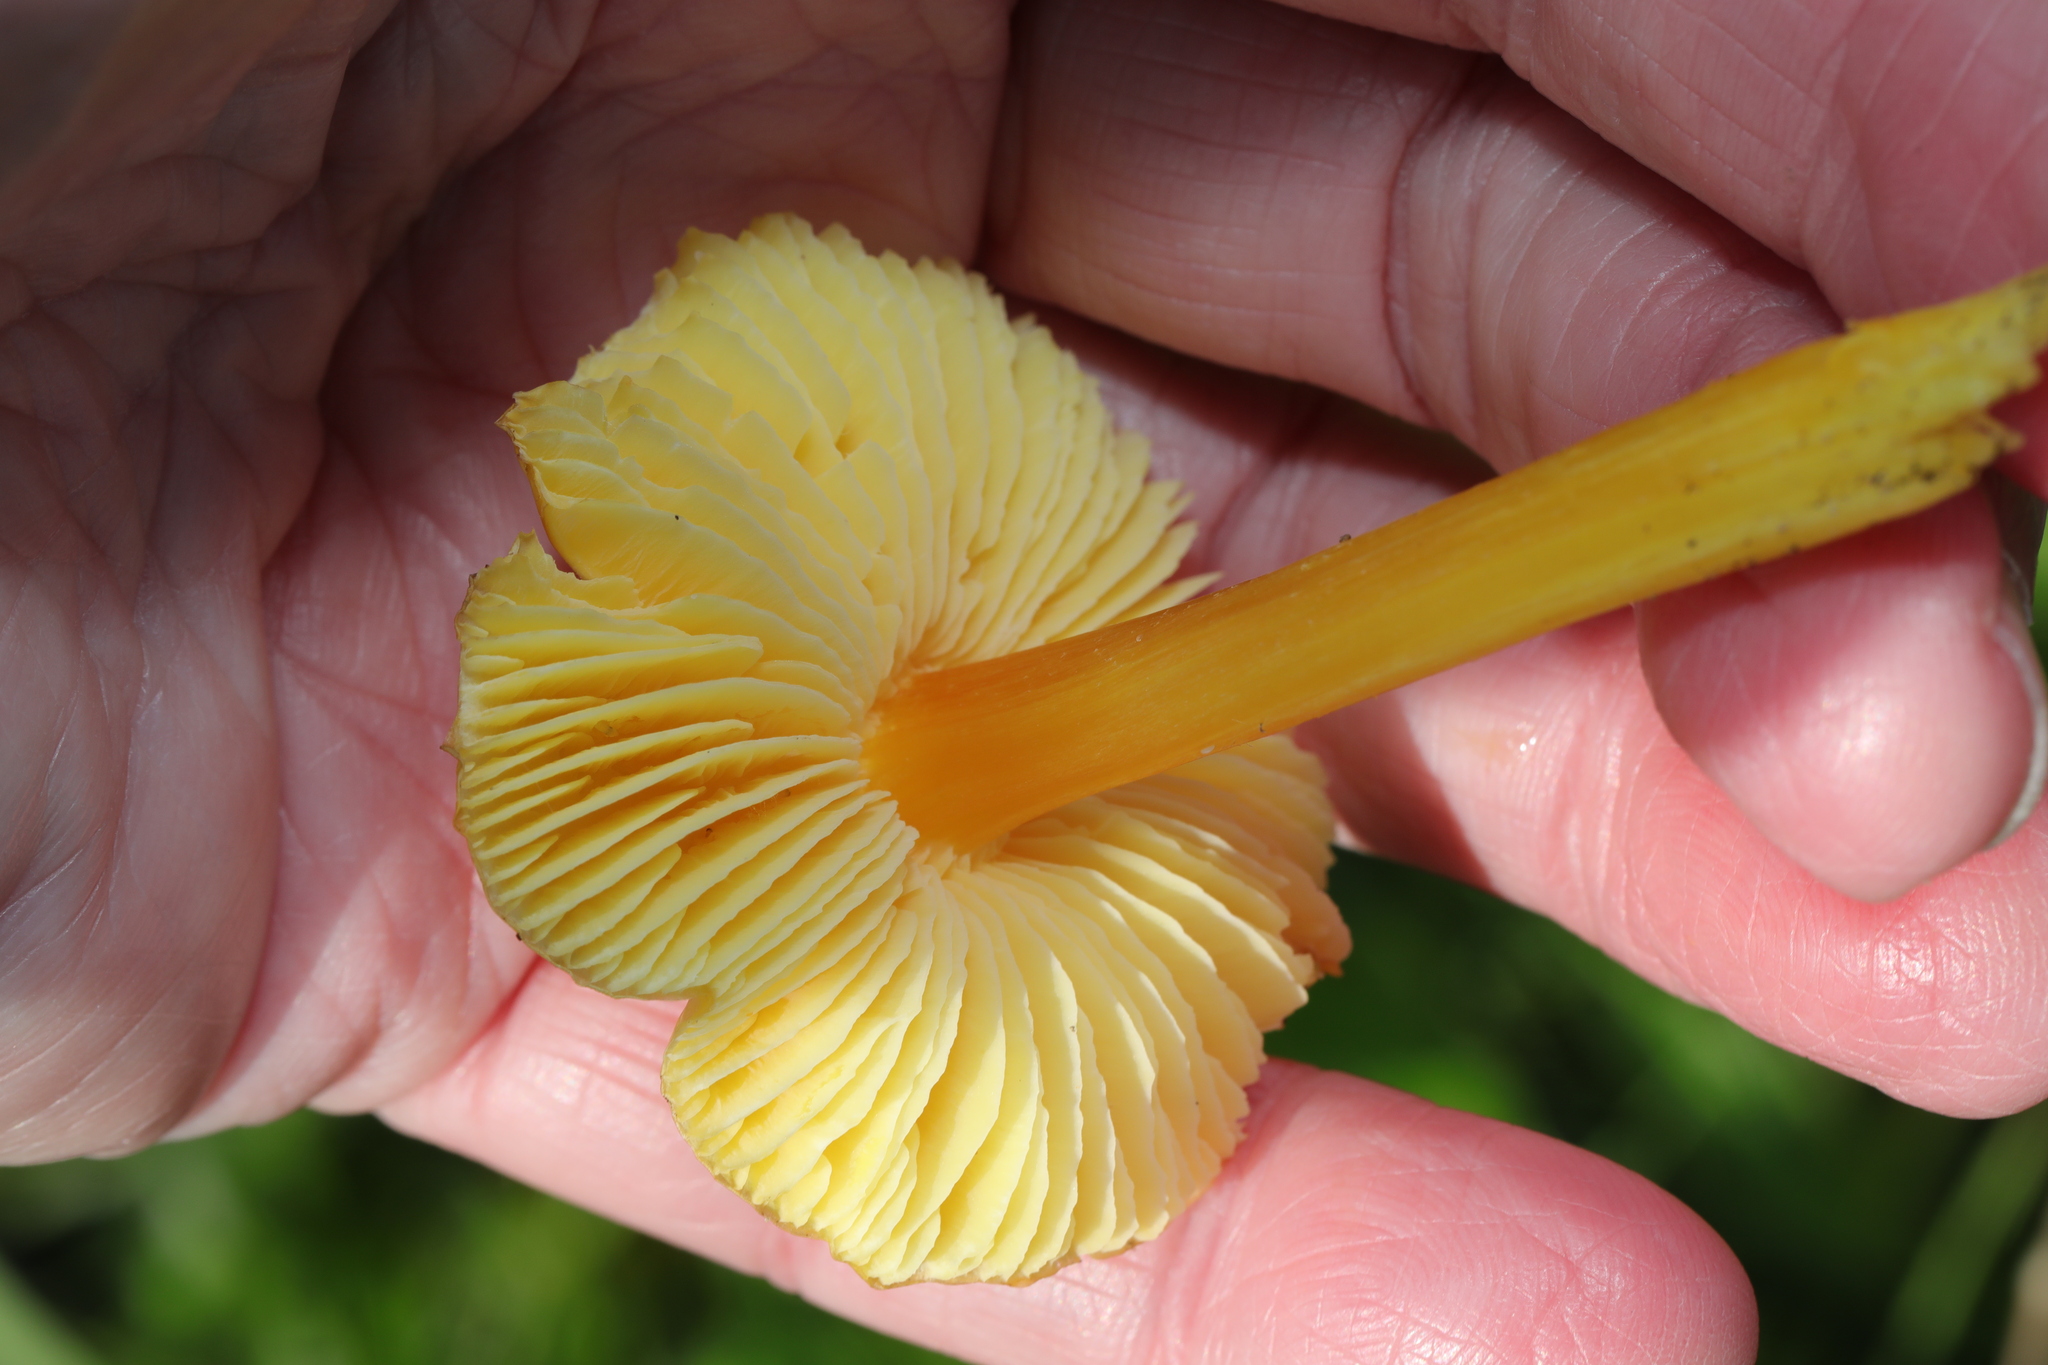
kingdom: Fungi
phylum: Basidiomycota
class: Agaricomycetes
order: Agaricales
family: Hygrophoraceae
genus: Hygrocybe
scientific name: Hygrocybe acutoconica
